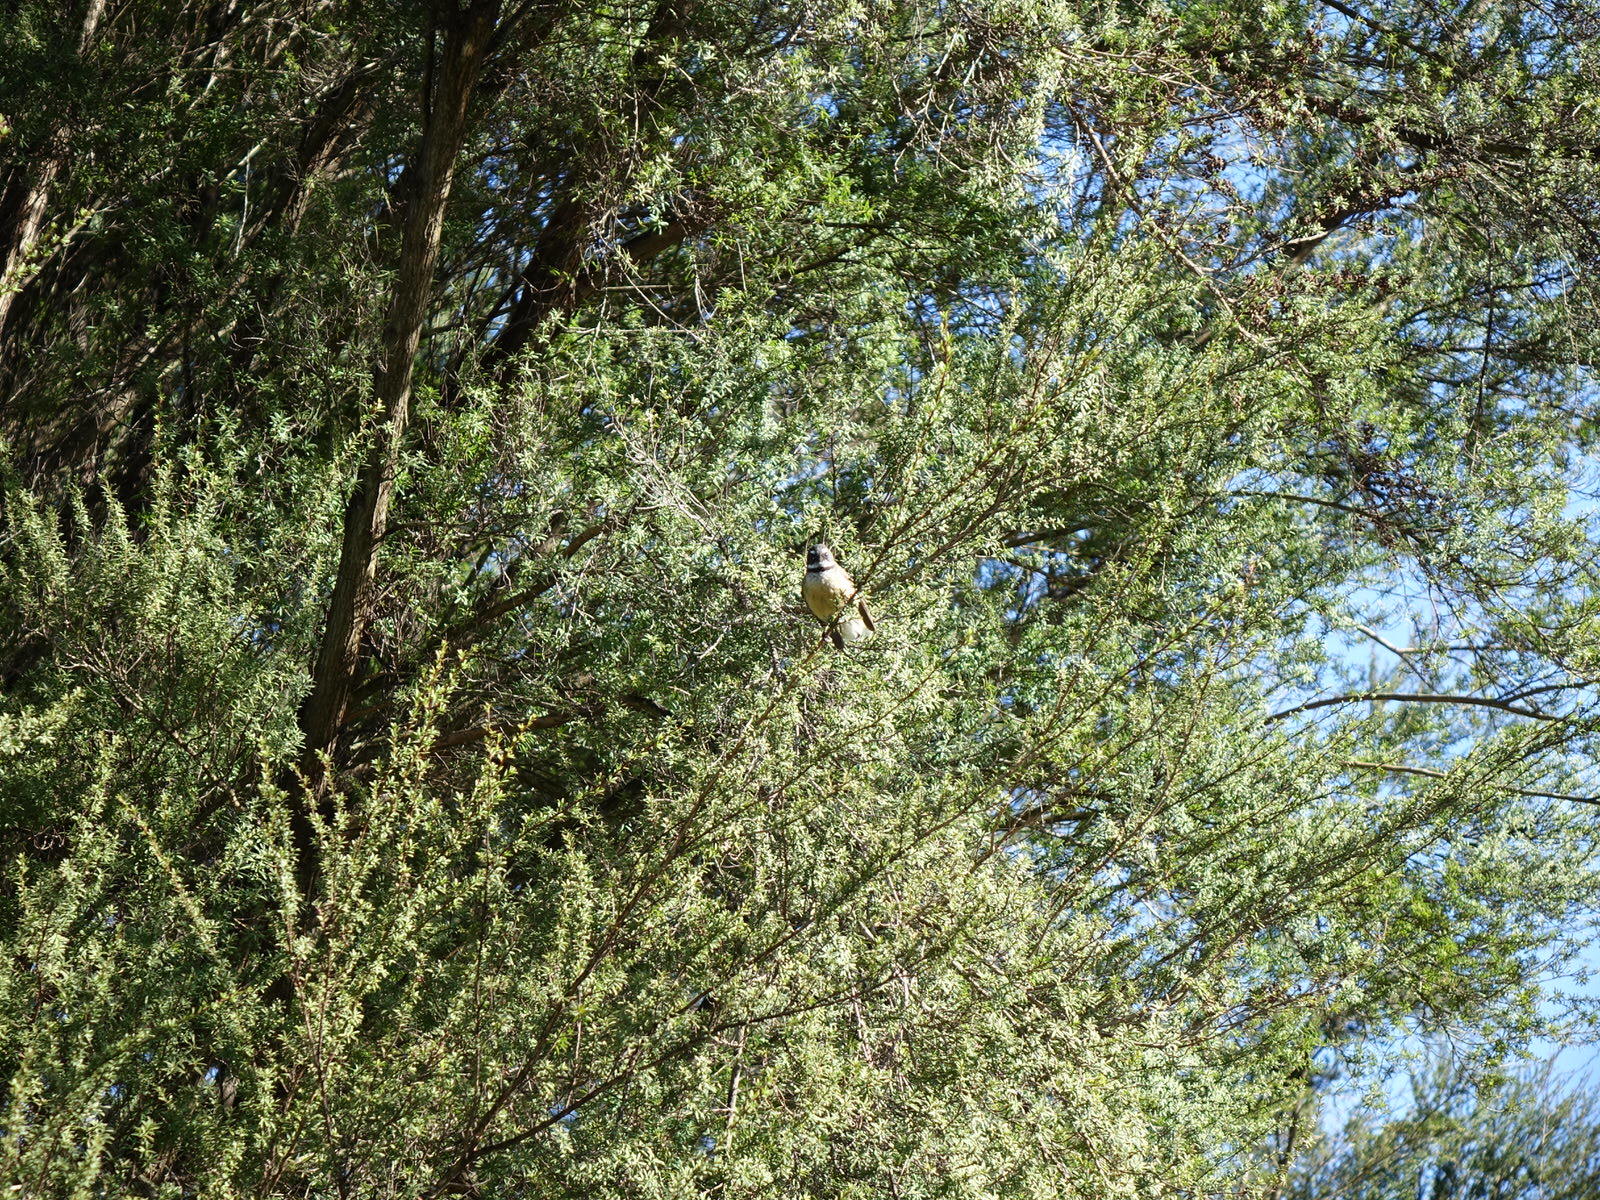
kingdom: Animalia
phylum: Chordata
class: Aves
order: Passeriformes
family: Rhipiduridae
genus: Rhipidura
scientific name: Rhipidura fuliginosa
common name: New zealand fantail
